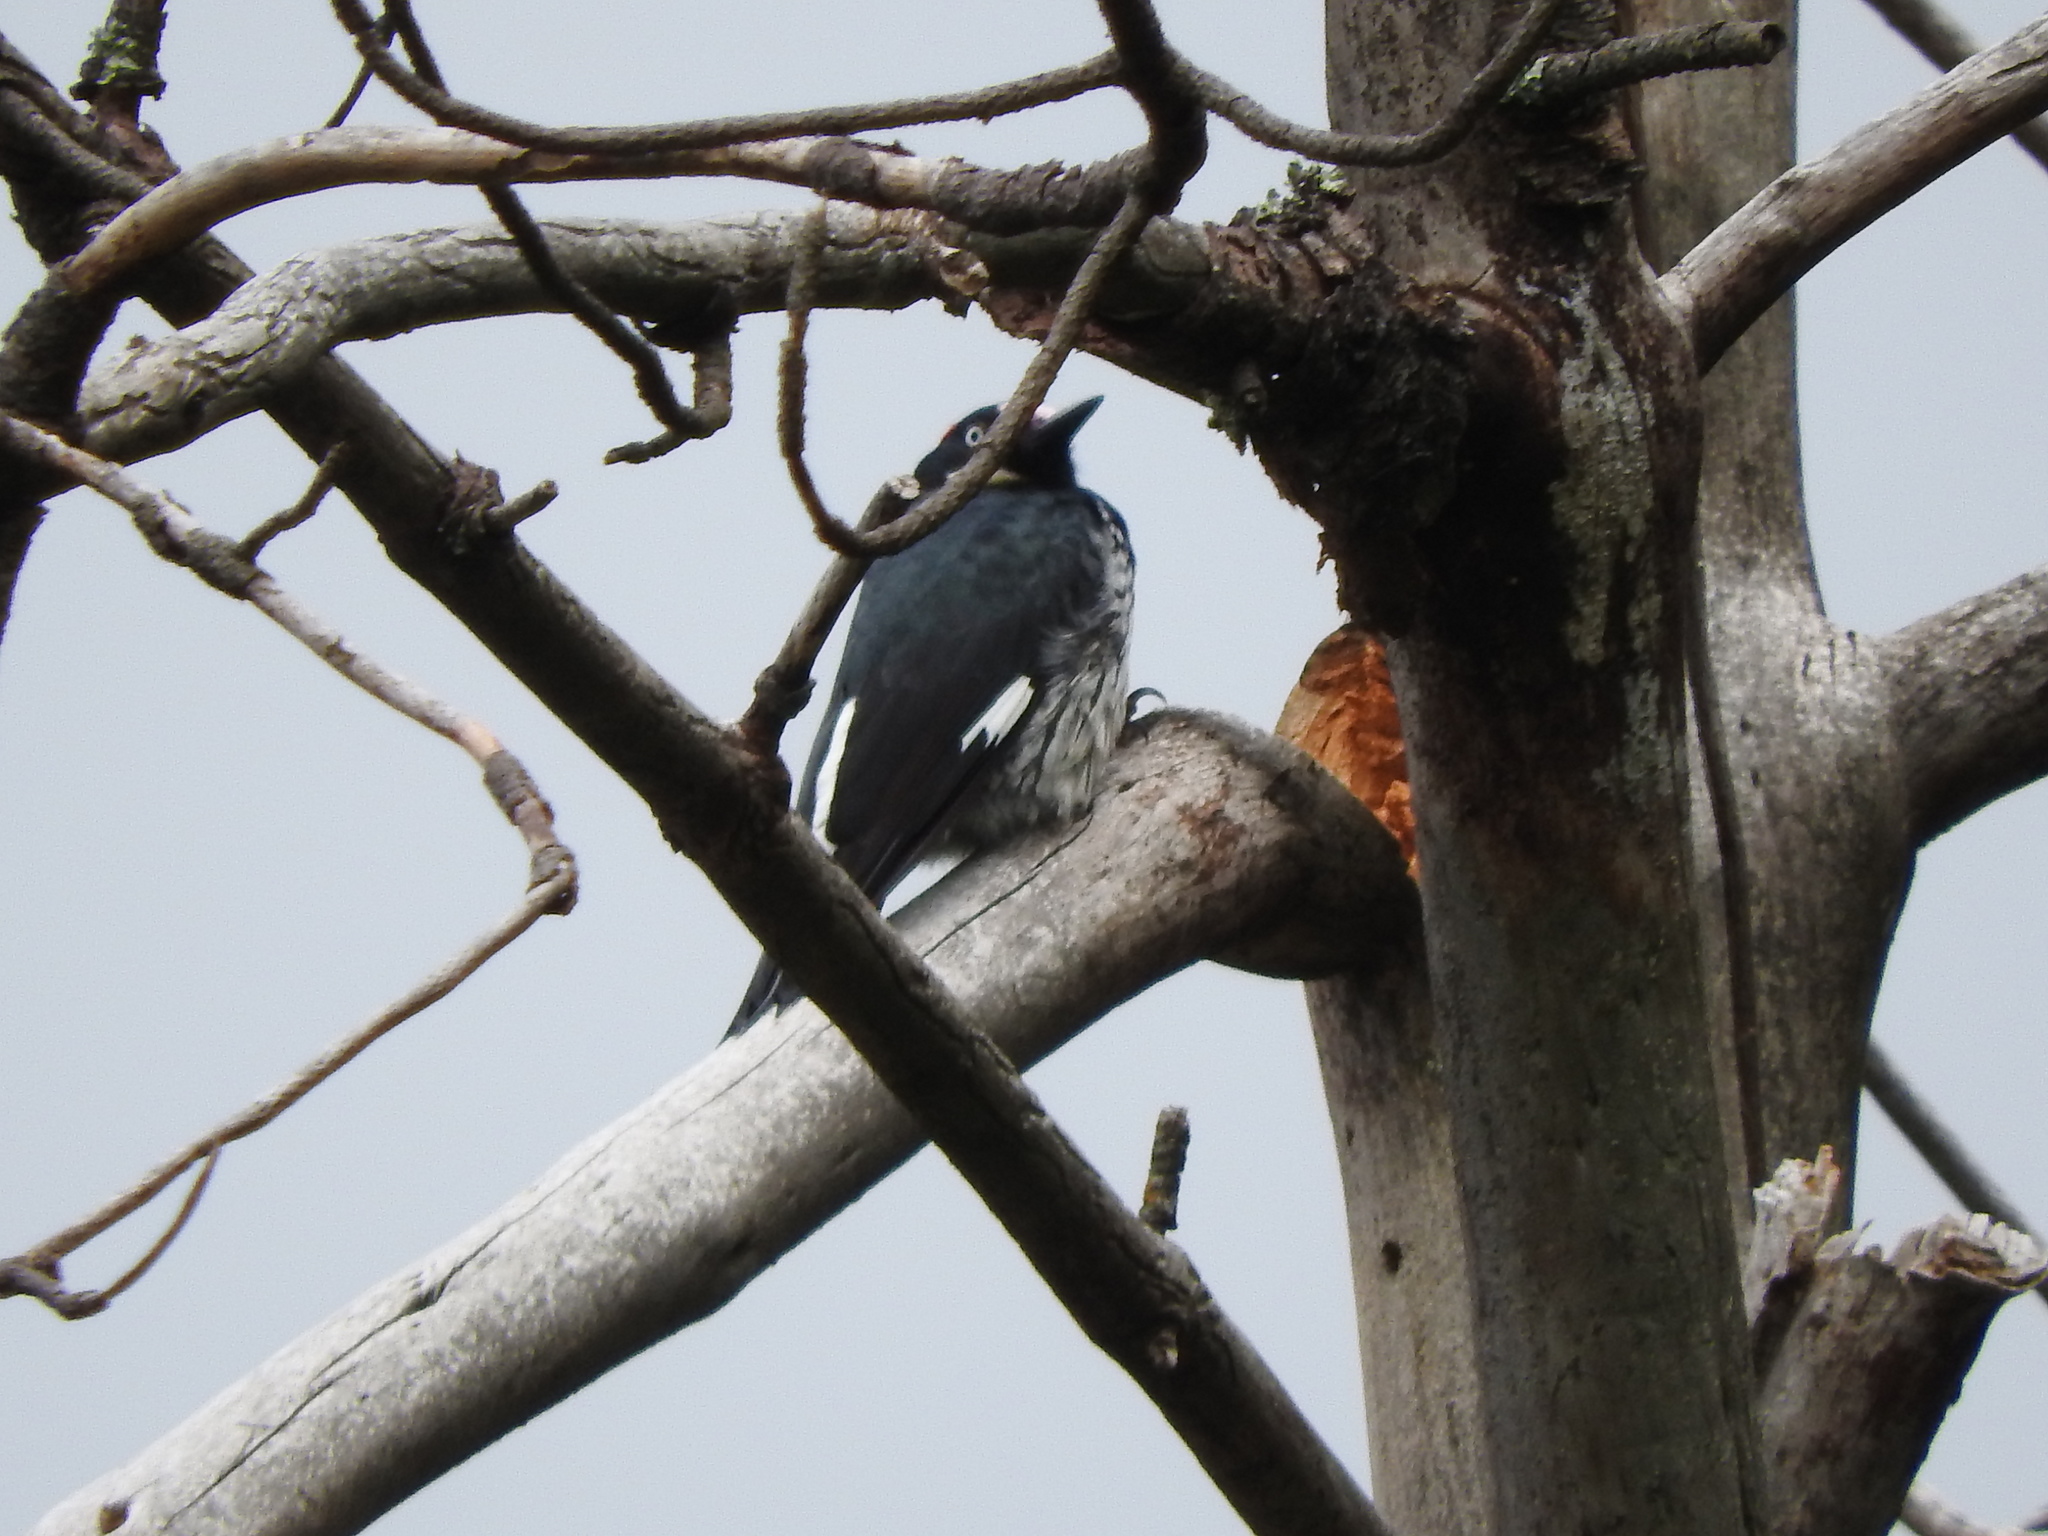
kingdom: Animalia
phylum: Chordata
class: Aves
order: Piciformes
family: Picidae
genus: Melanerpes
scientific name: Melanerpes formicivorus
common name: Acorn woodpecker
